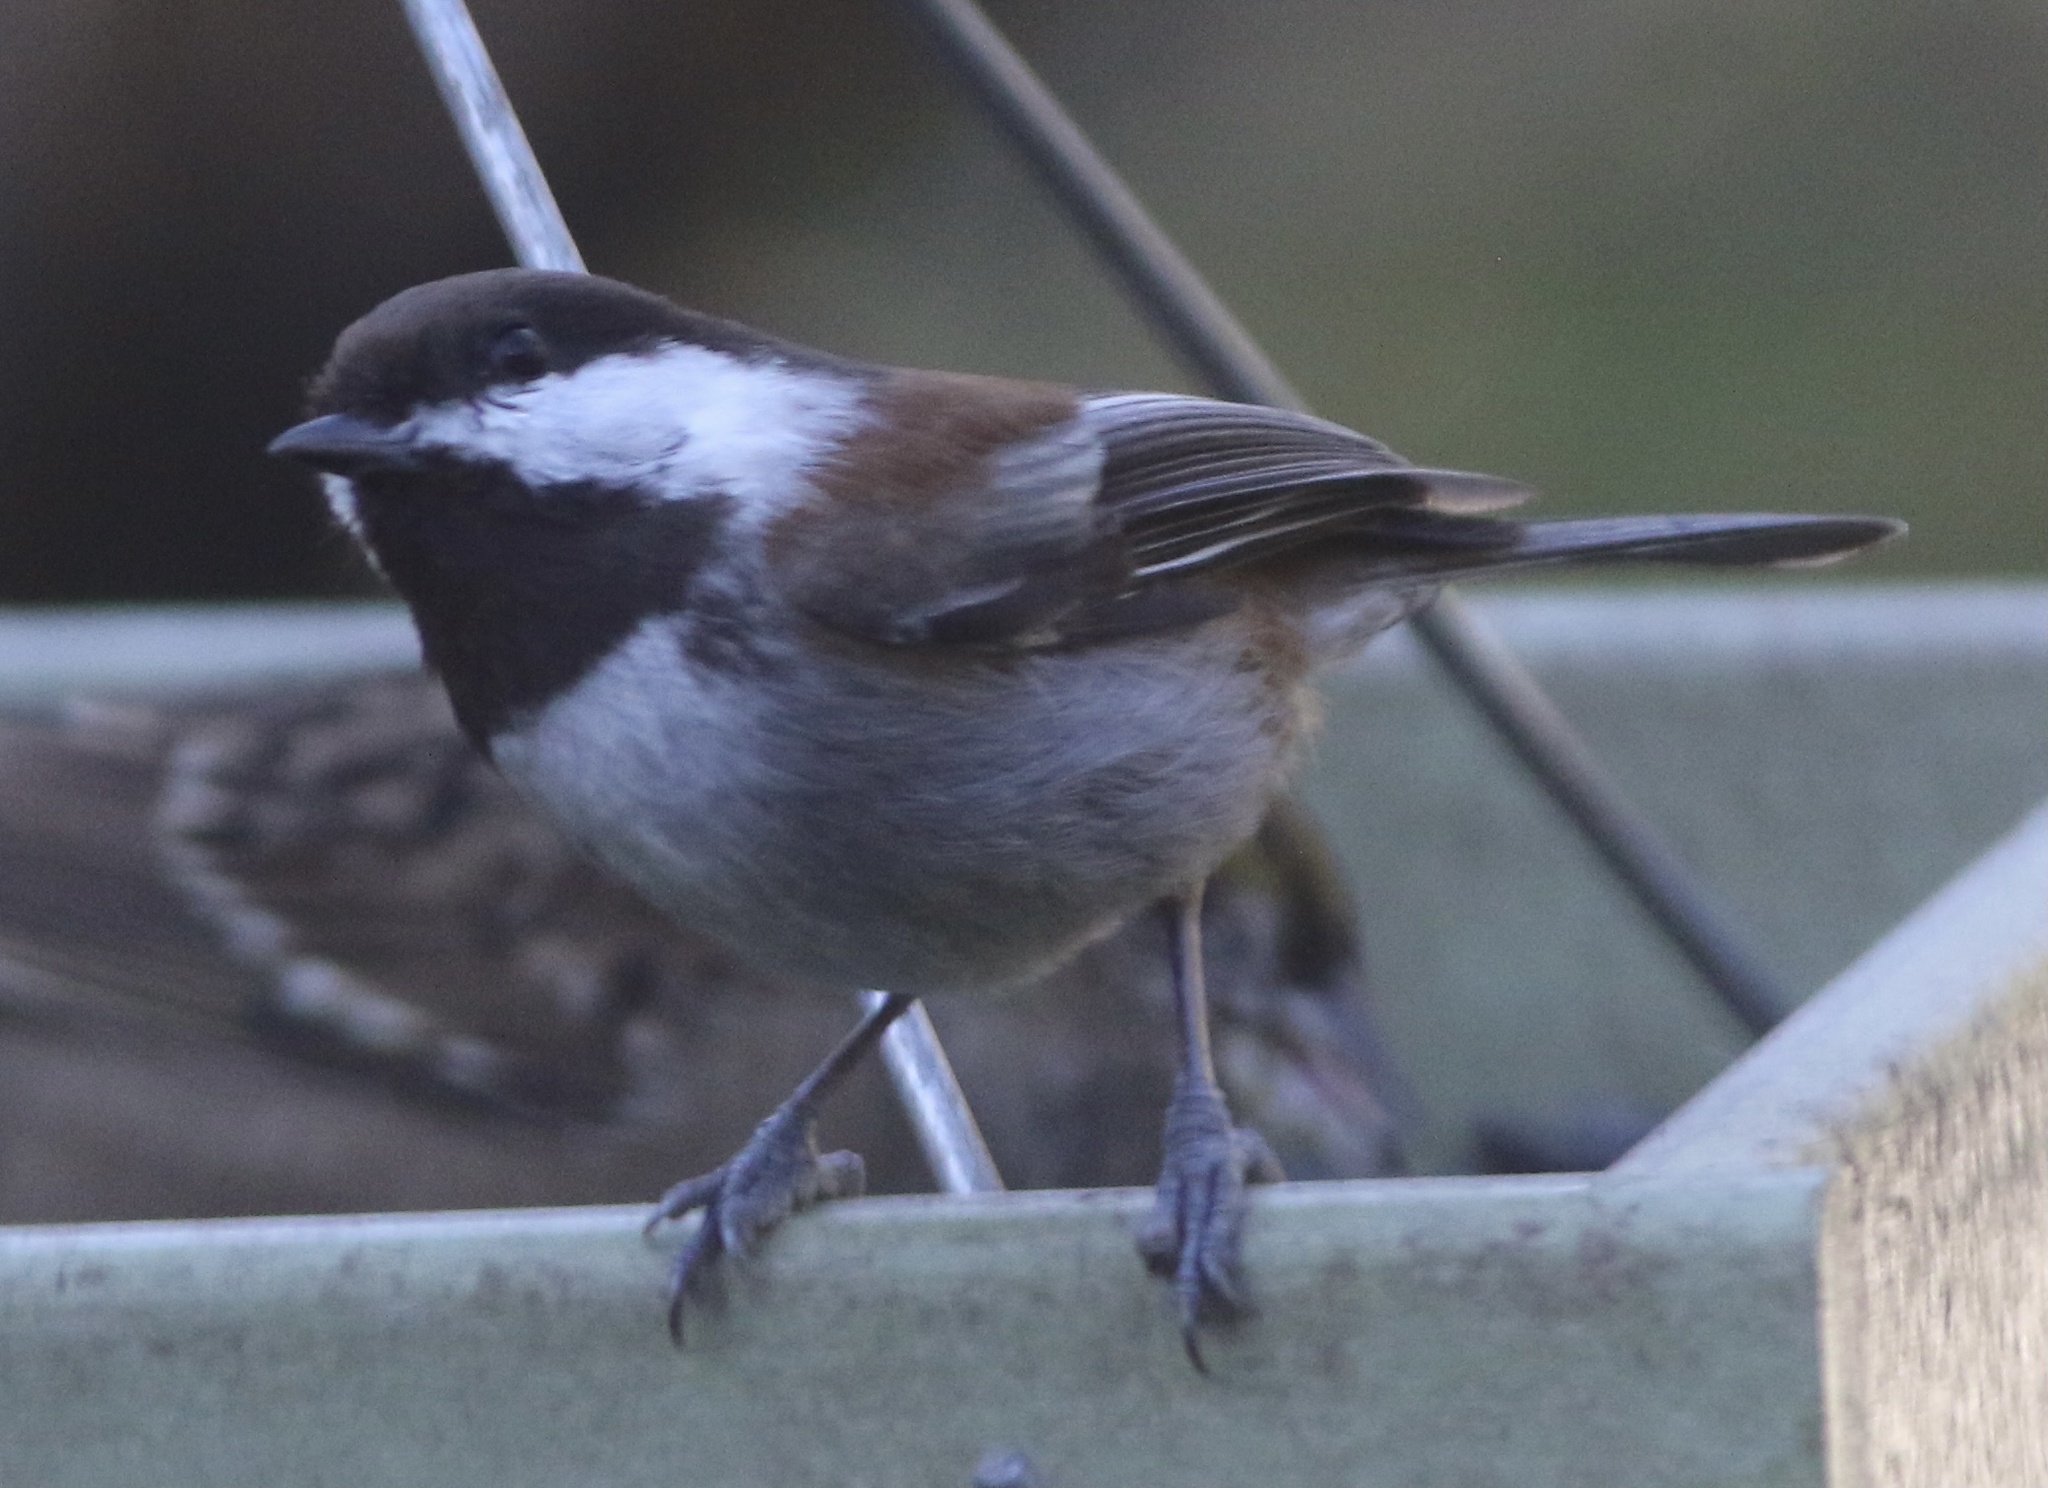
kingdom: Animalia
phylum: Chordata
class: Aves
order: Passeriformes
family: Paridae
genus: Poecile
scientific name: Poecile rufescens
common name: Chestnut-backed chickadee
